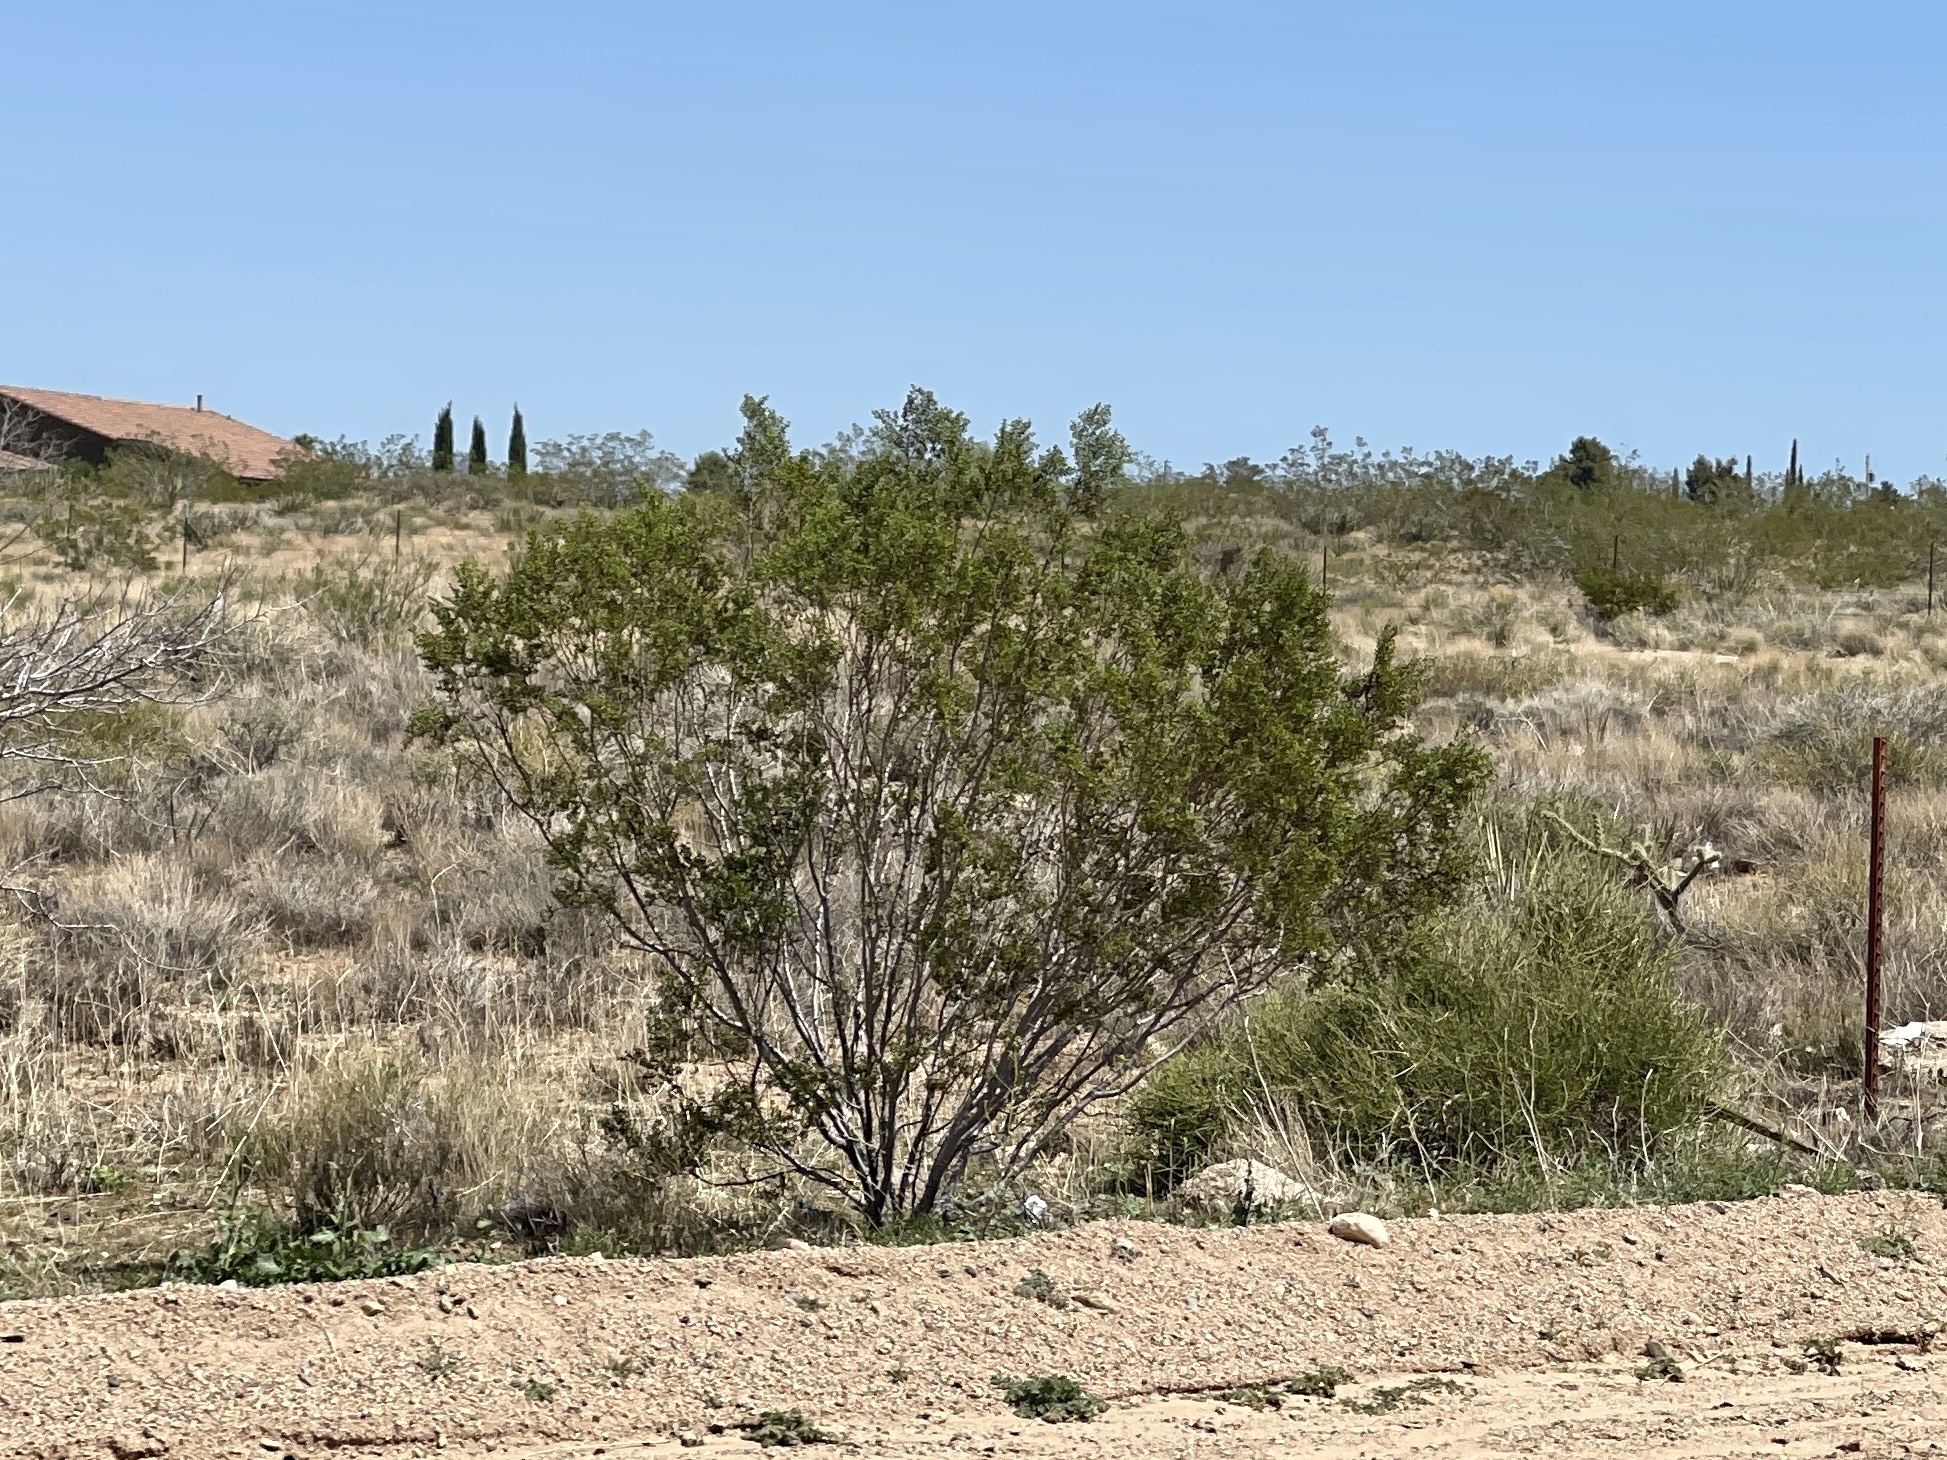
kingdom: Plantae
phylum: Tracheophyta
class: Magnoliopsida
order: Zygophyllales
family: Zygophyllaceae
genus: Larrea
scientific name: Larrea tridentata
